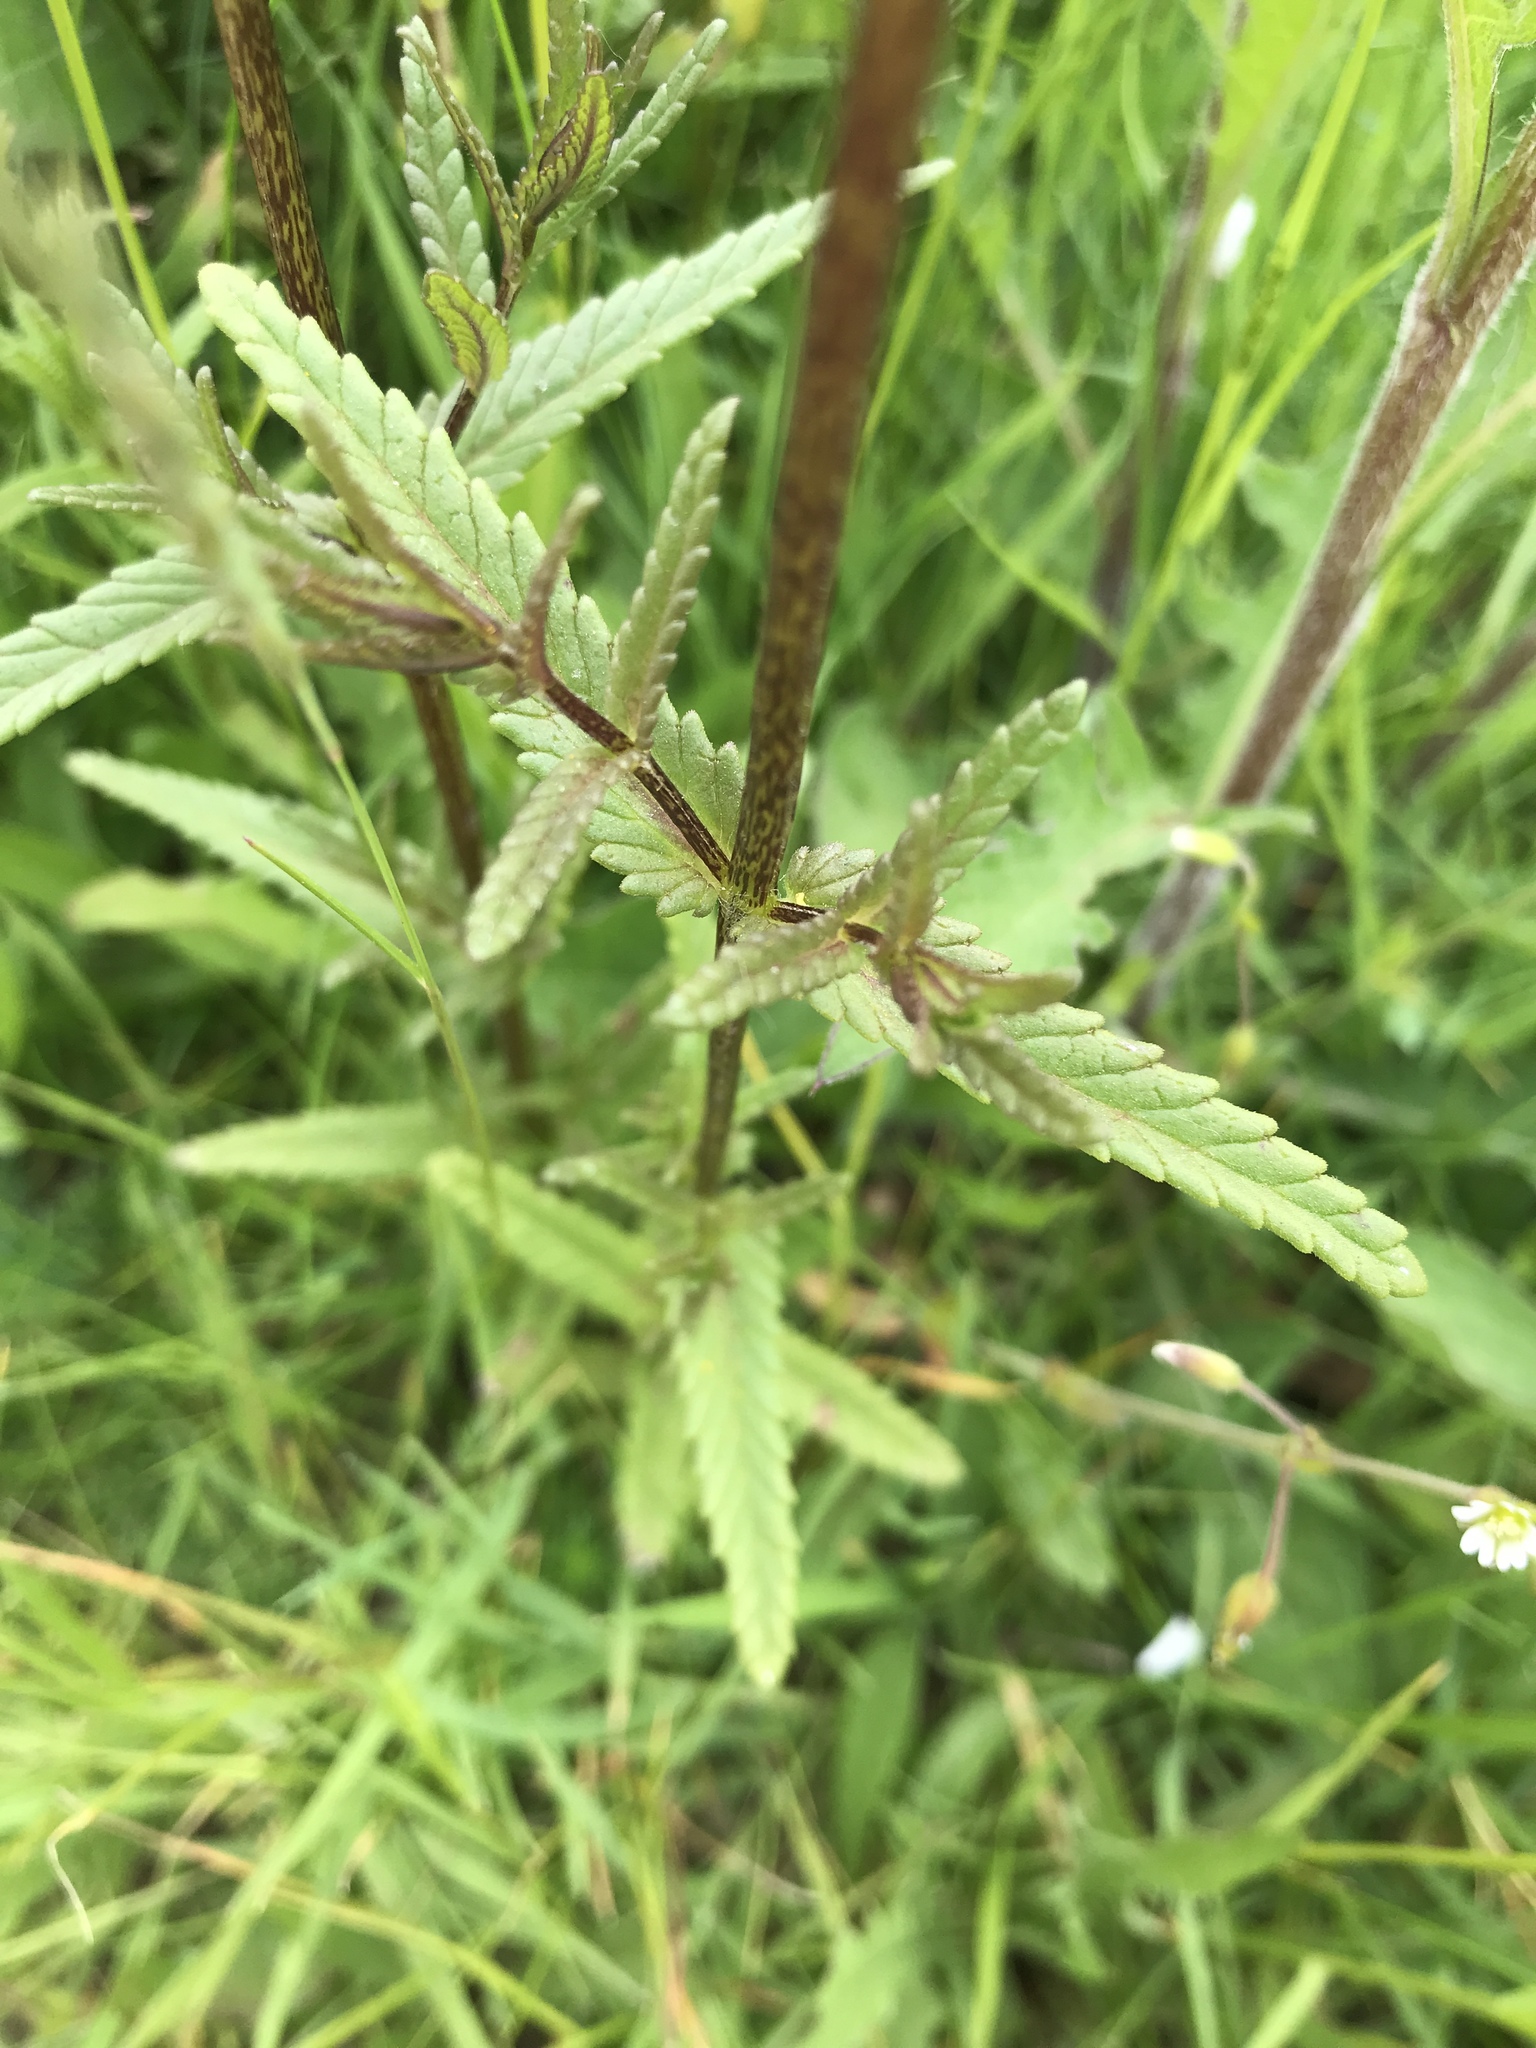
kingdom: Plantae
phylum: Tracheophyta
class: Magnoliopsida
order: Lamiales
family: Orobanchaceae
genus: Rhinanthus
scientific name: Rhinanthus minor
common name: Yellow-rattle
